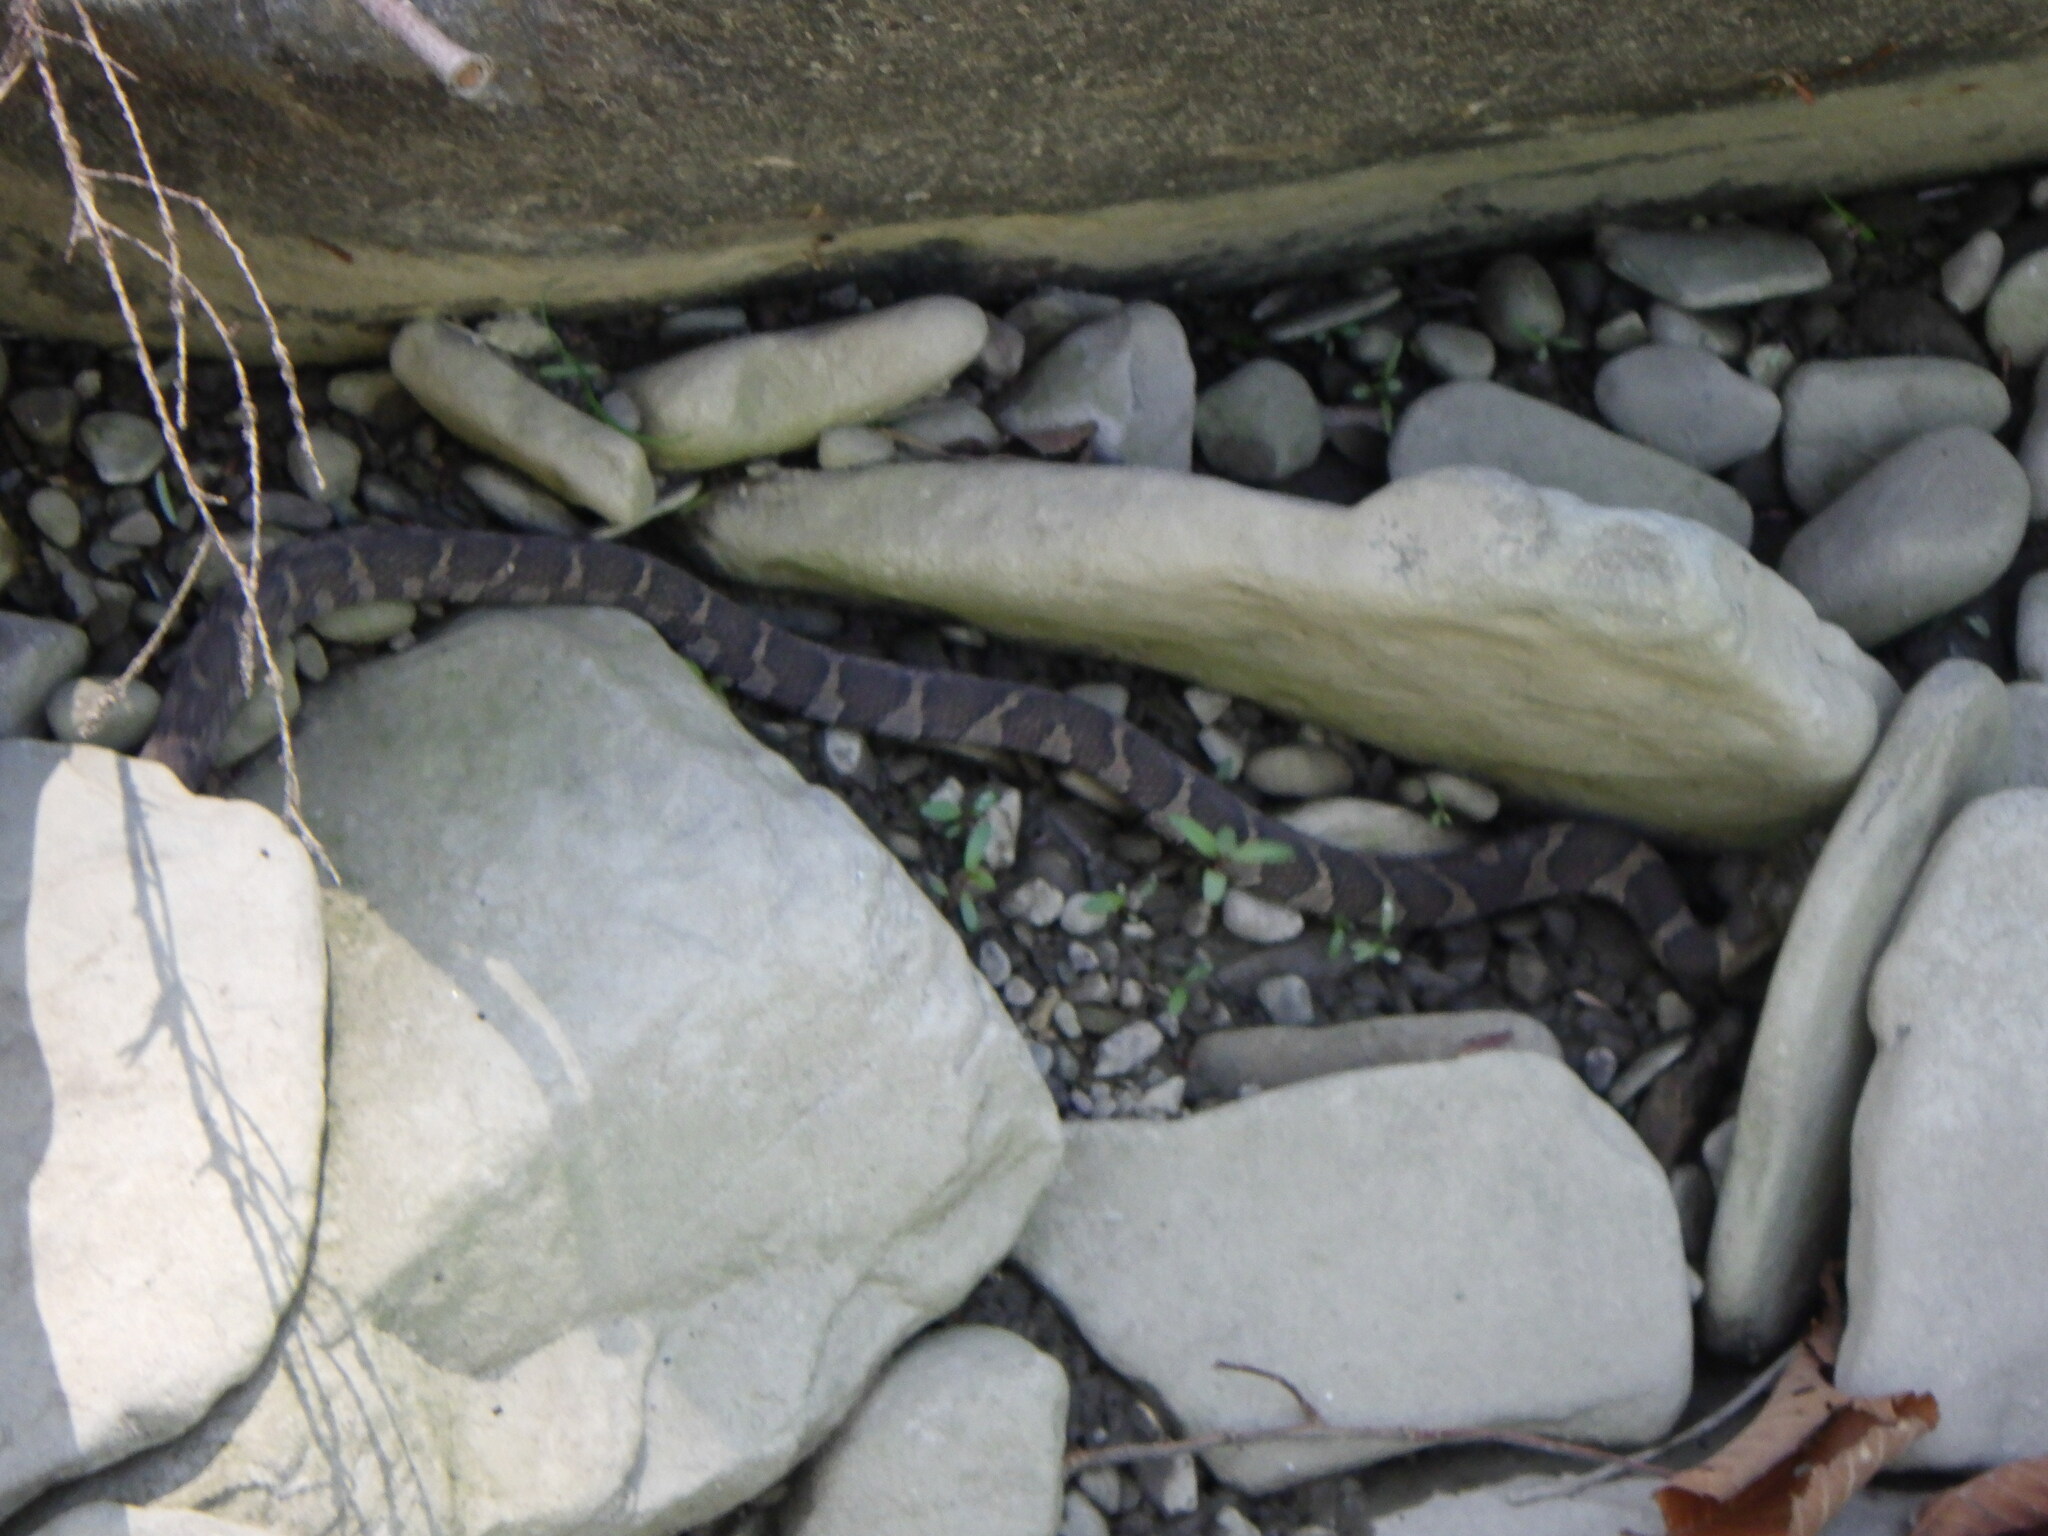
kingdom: Animalia
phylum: Chordata
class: Squamata
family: Colubridae
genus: Nerodia
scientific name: Nerodia sipedon
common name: Northern water snake
